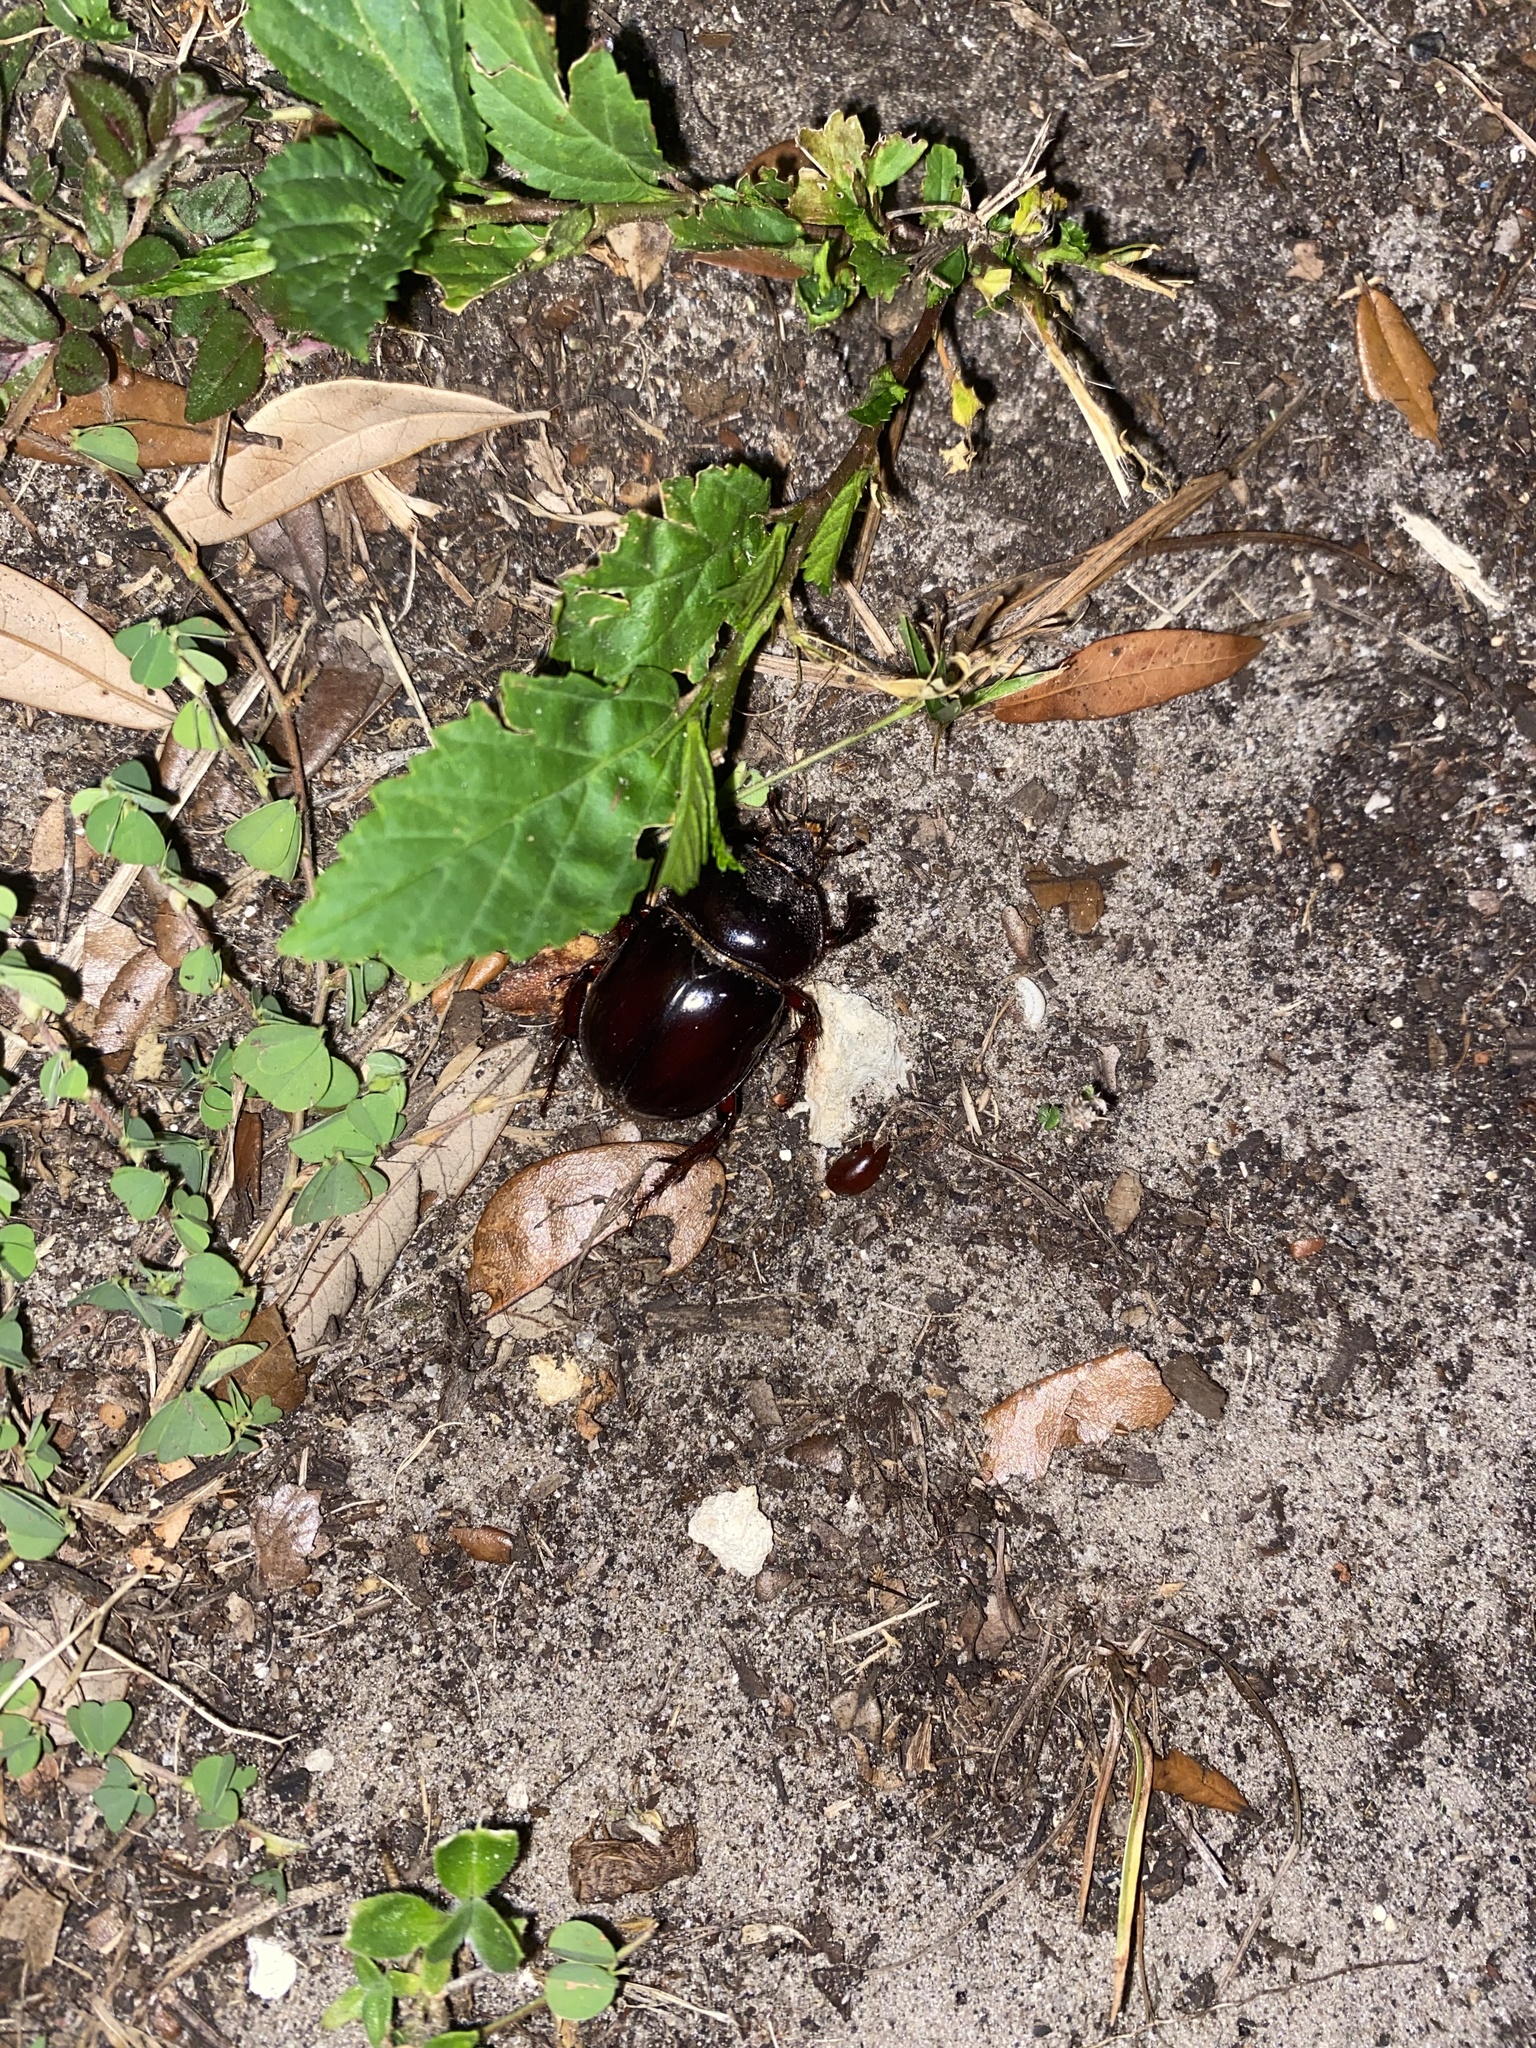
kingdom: Animalia
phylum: Arthropoda
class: Insecta
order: Coleoptera
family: Scarabaeidae
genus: Strategus
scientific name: Strategus antaeus
